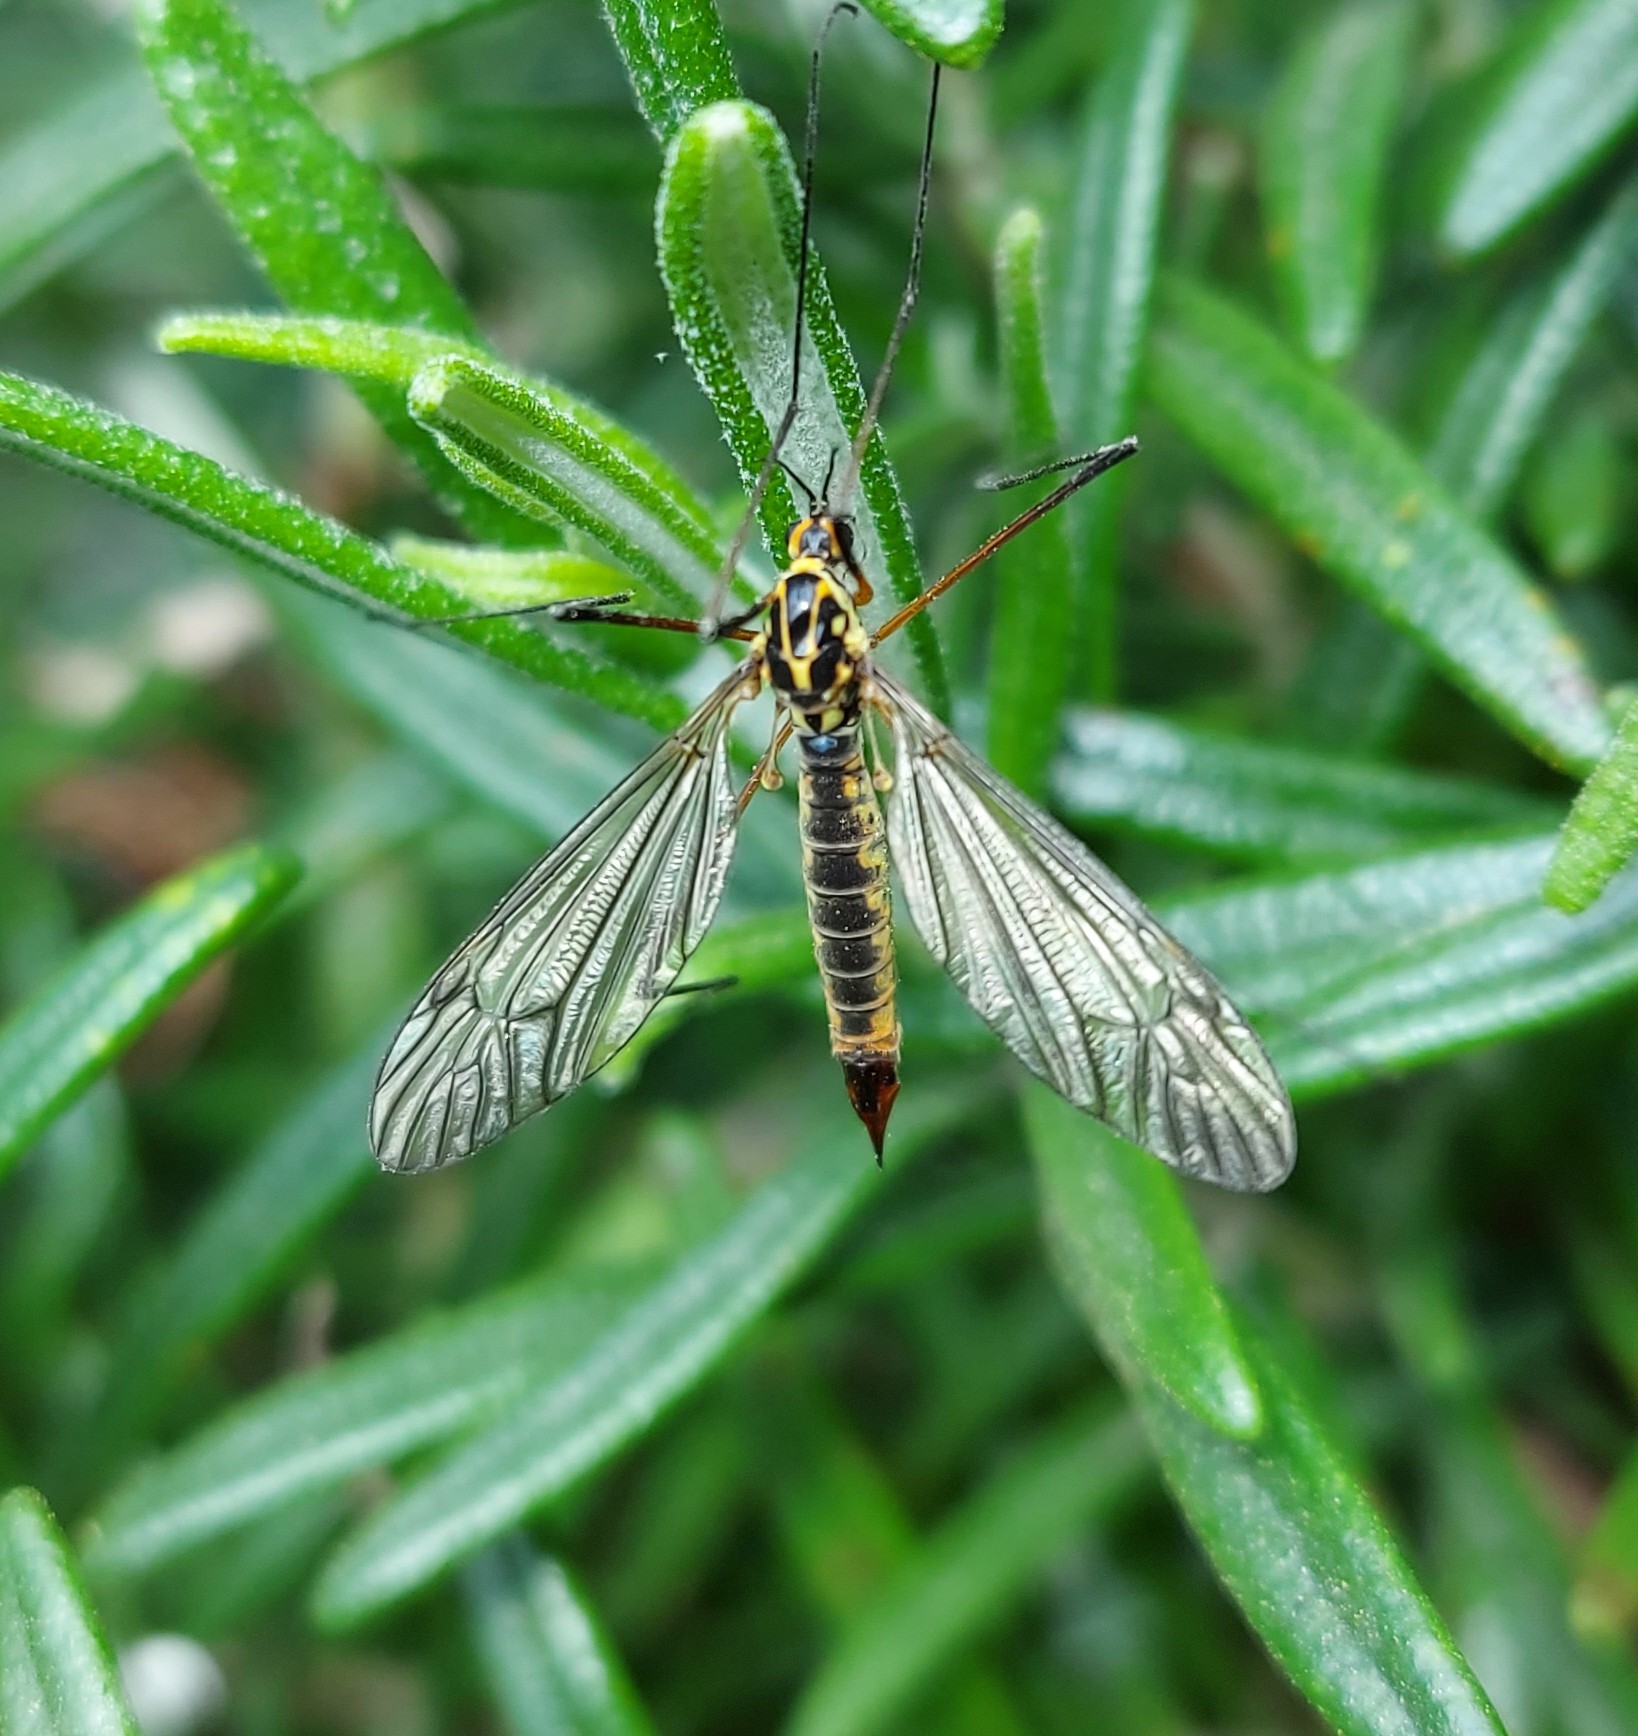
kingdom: Animalia
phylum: Arthropoda
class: Insecta
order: Diptera
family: Tipulidae
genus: Nephrotoma
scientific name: Nephrotoma appendiculata
